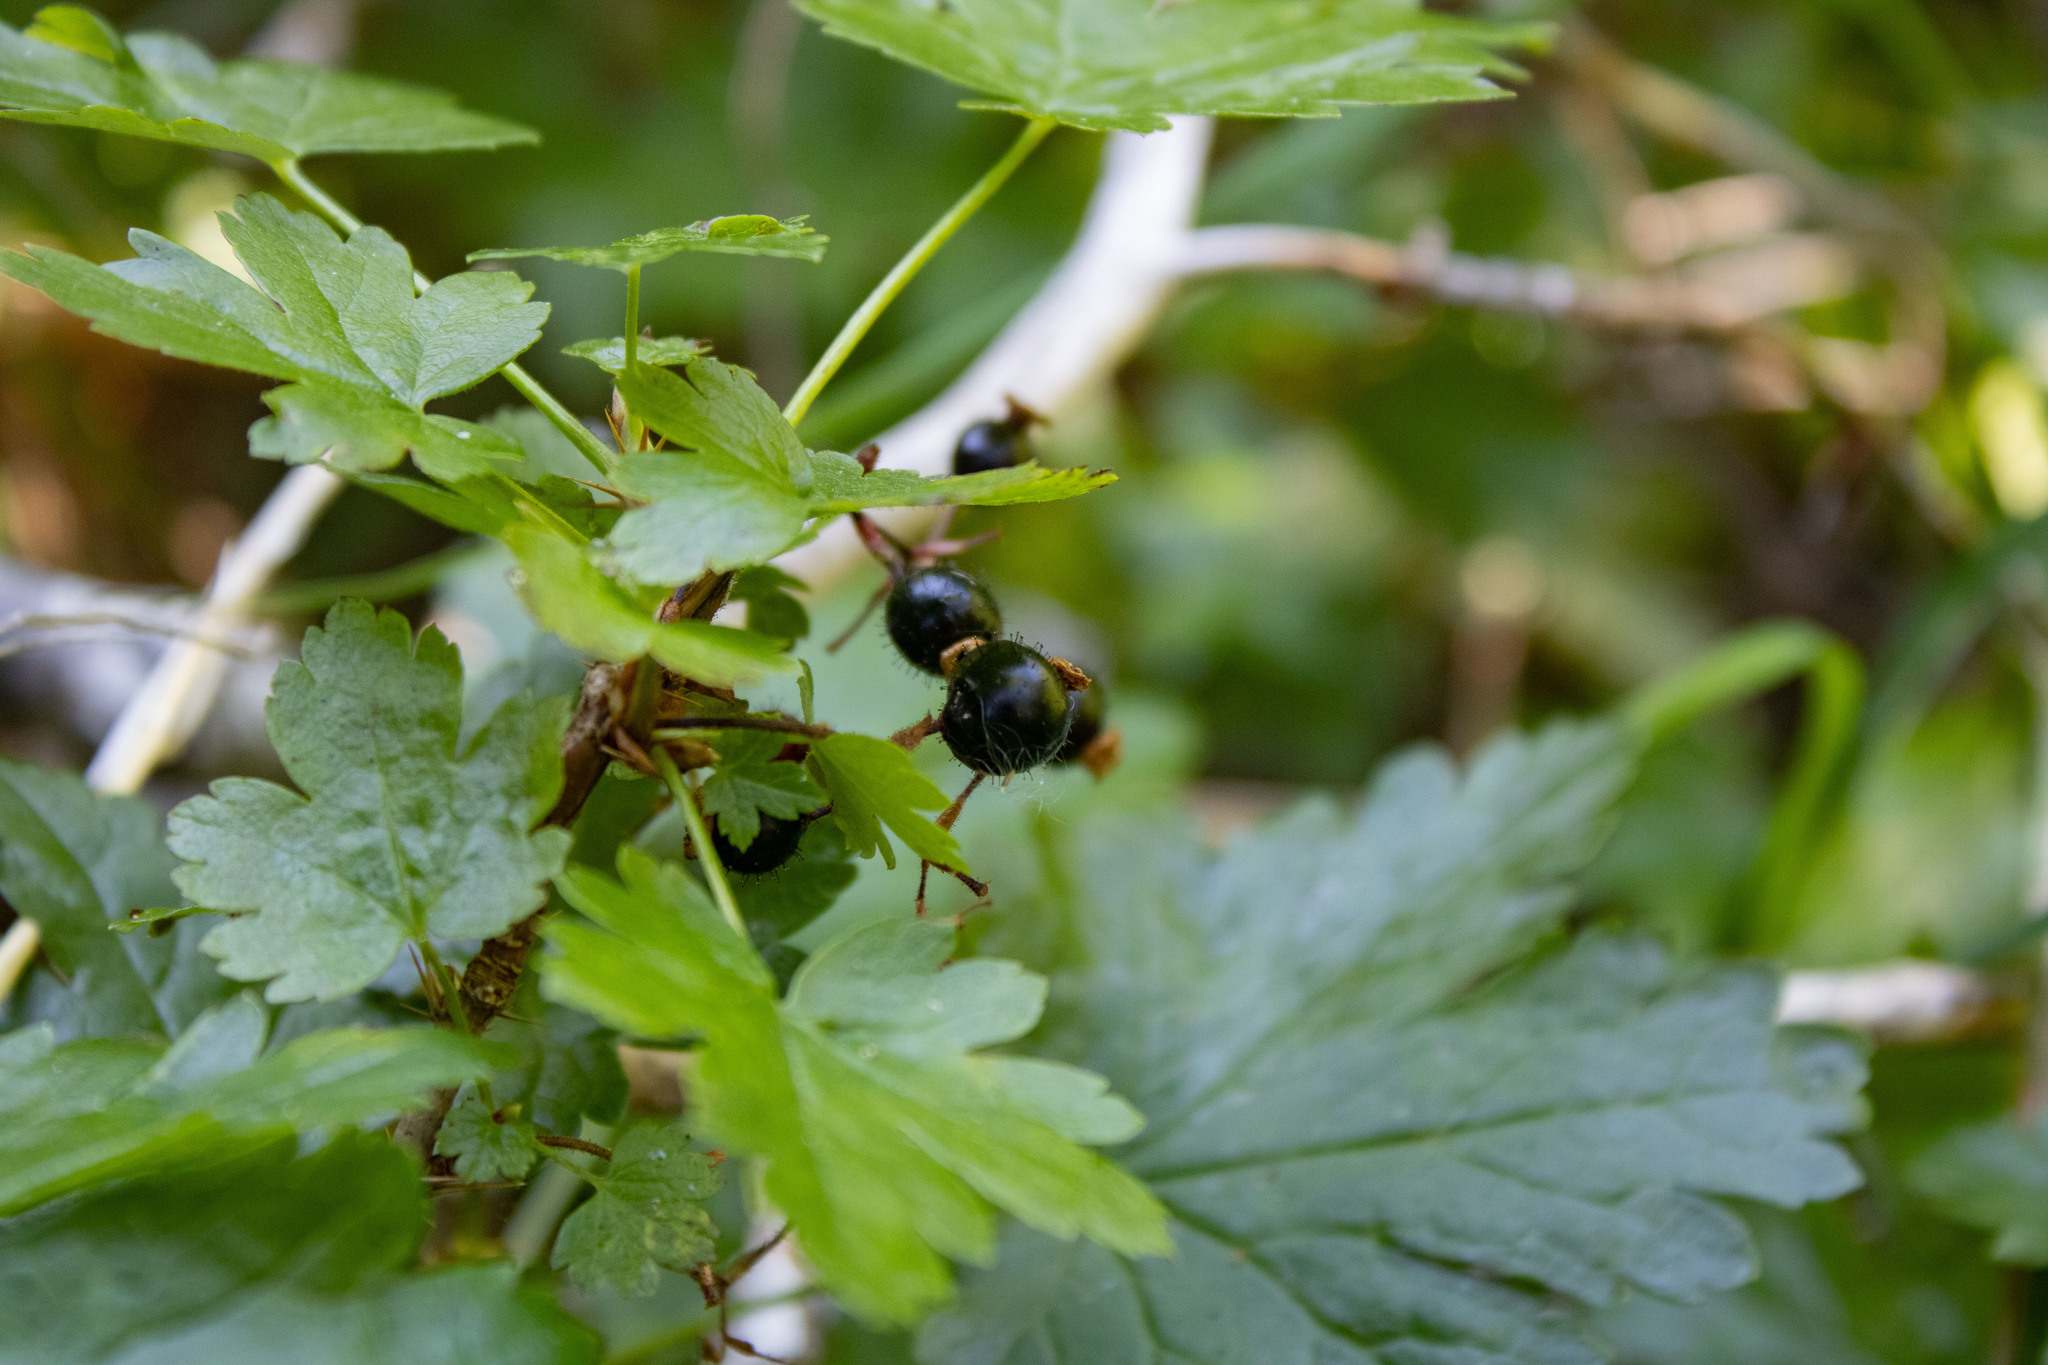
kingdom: Plantae
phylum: Tracheophyta
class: Magnoliopsida
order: Saxifragales
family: Grossulariaceae
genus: Ribes
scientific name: Ribes lacustre
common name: Black gooseberry
